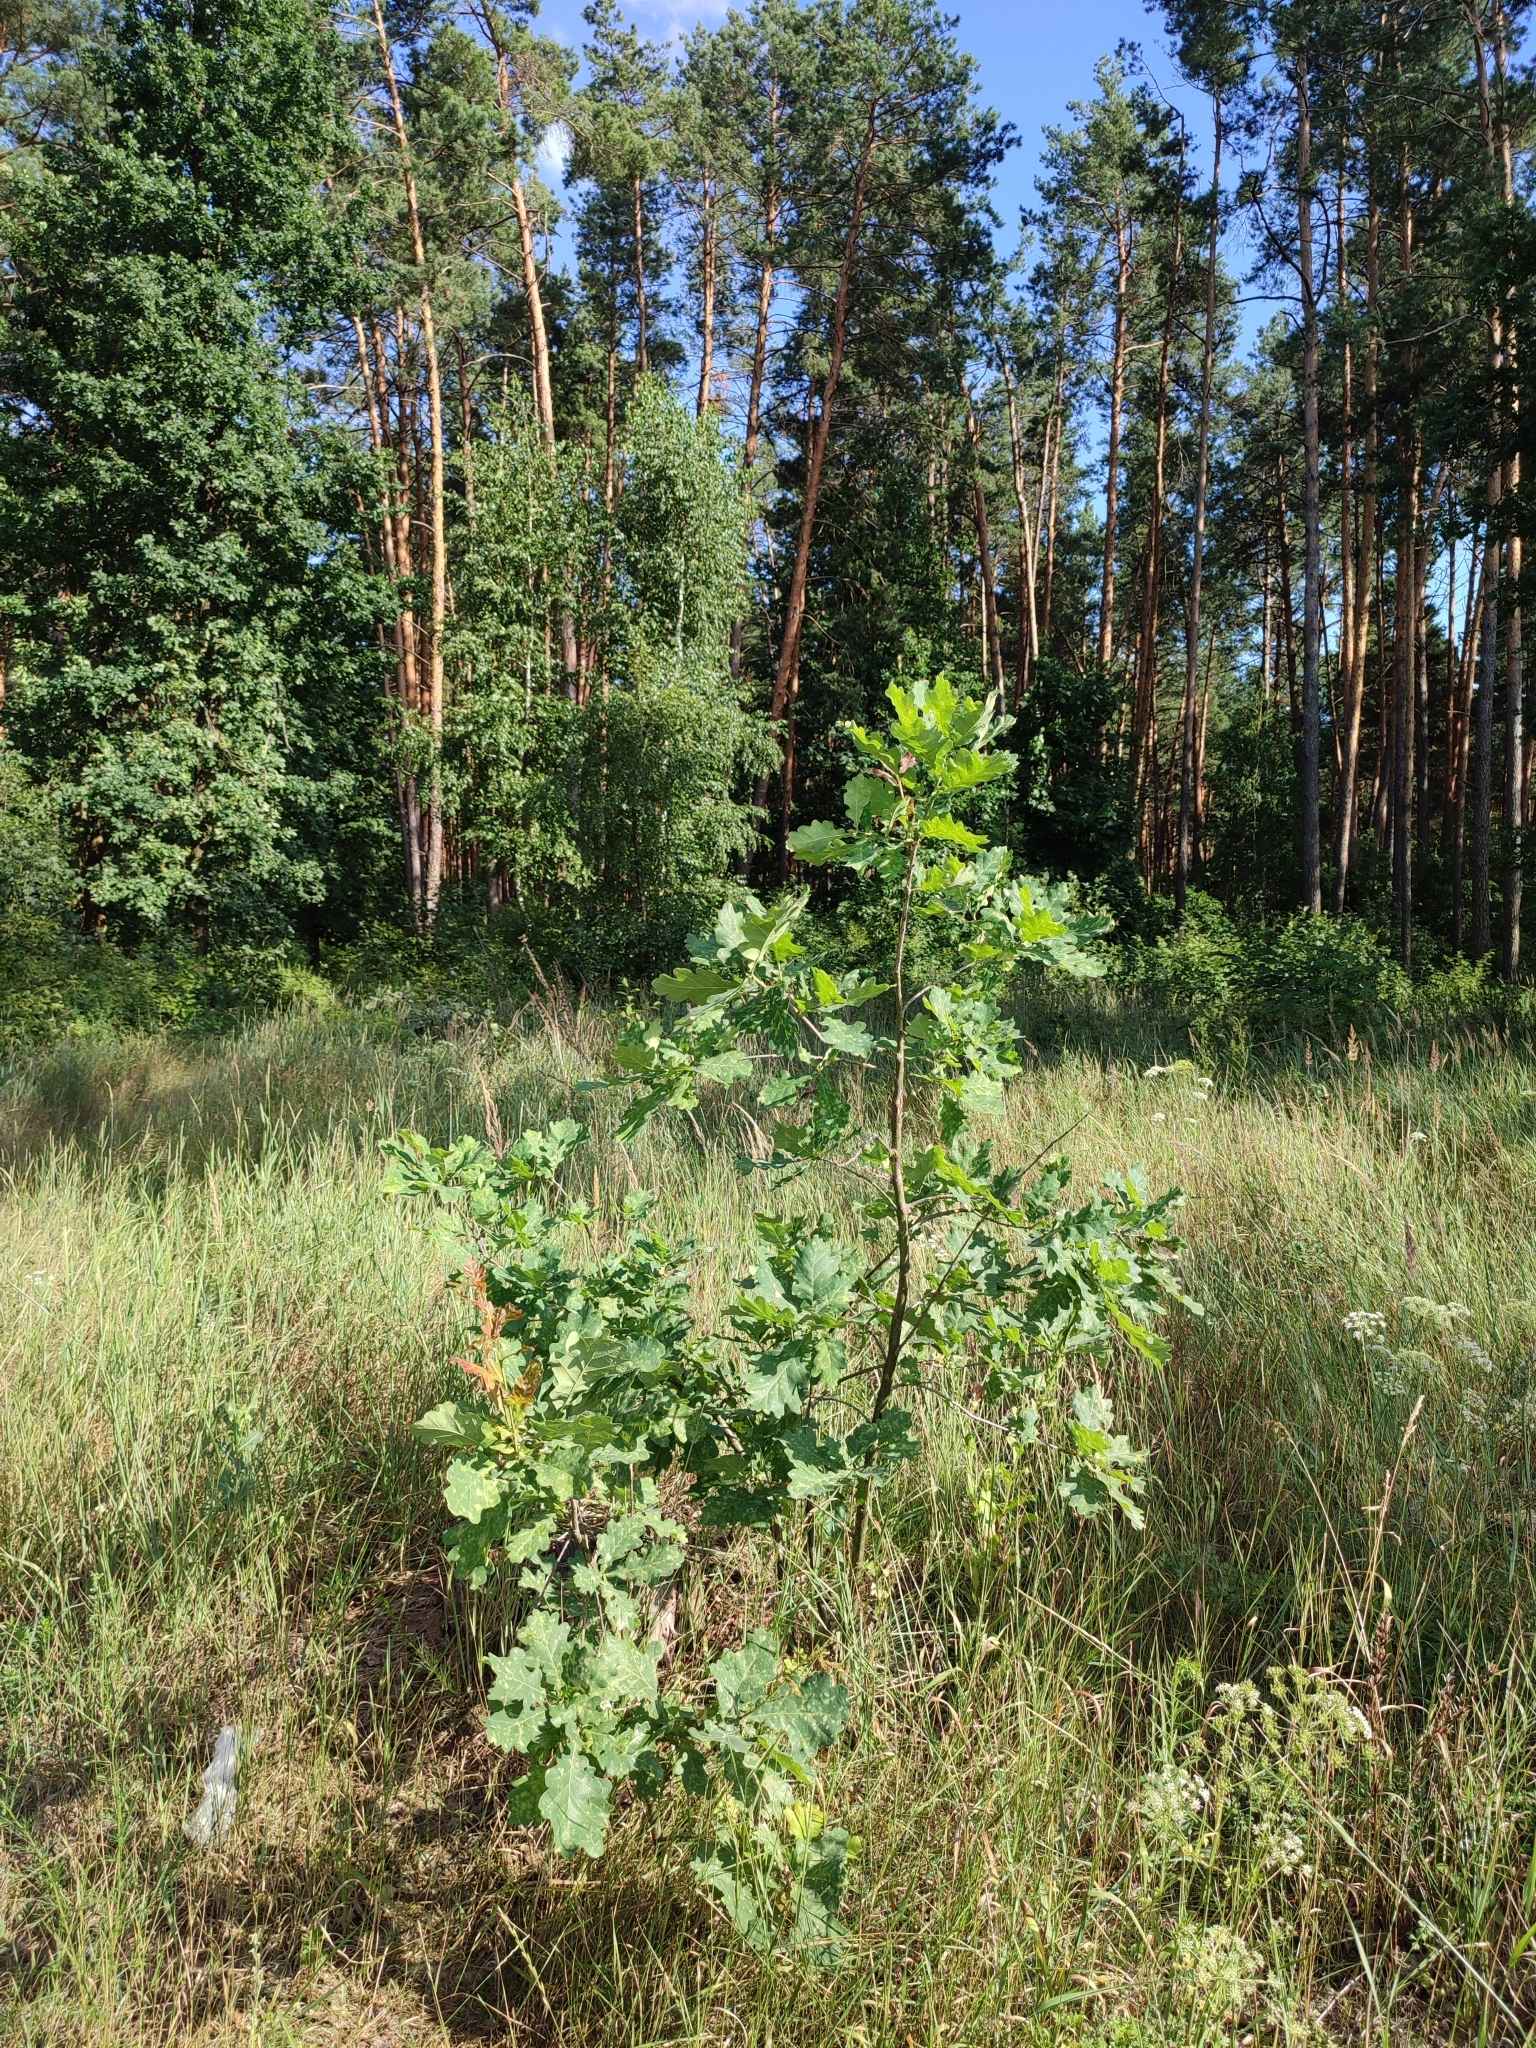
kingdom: Plantae
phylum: Tracheophyta
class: Magnoliopsida
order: Fagales
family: Fagaceae
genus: Quercus
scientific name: Quercus robur
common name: Pedunculate oak
